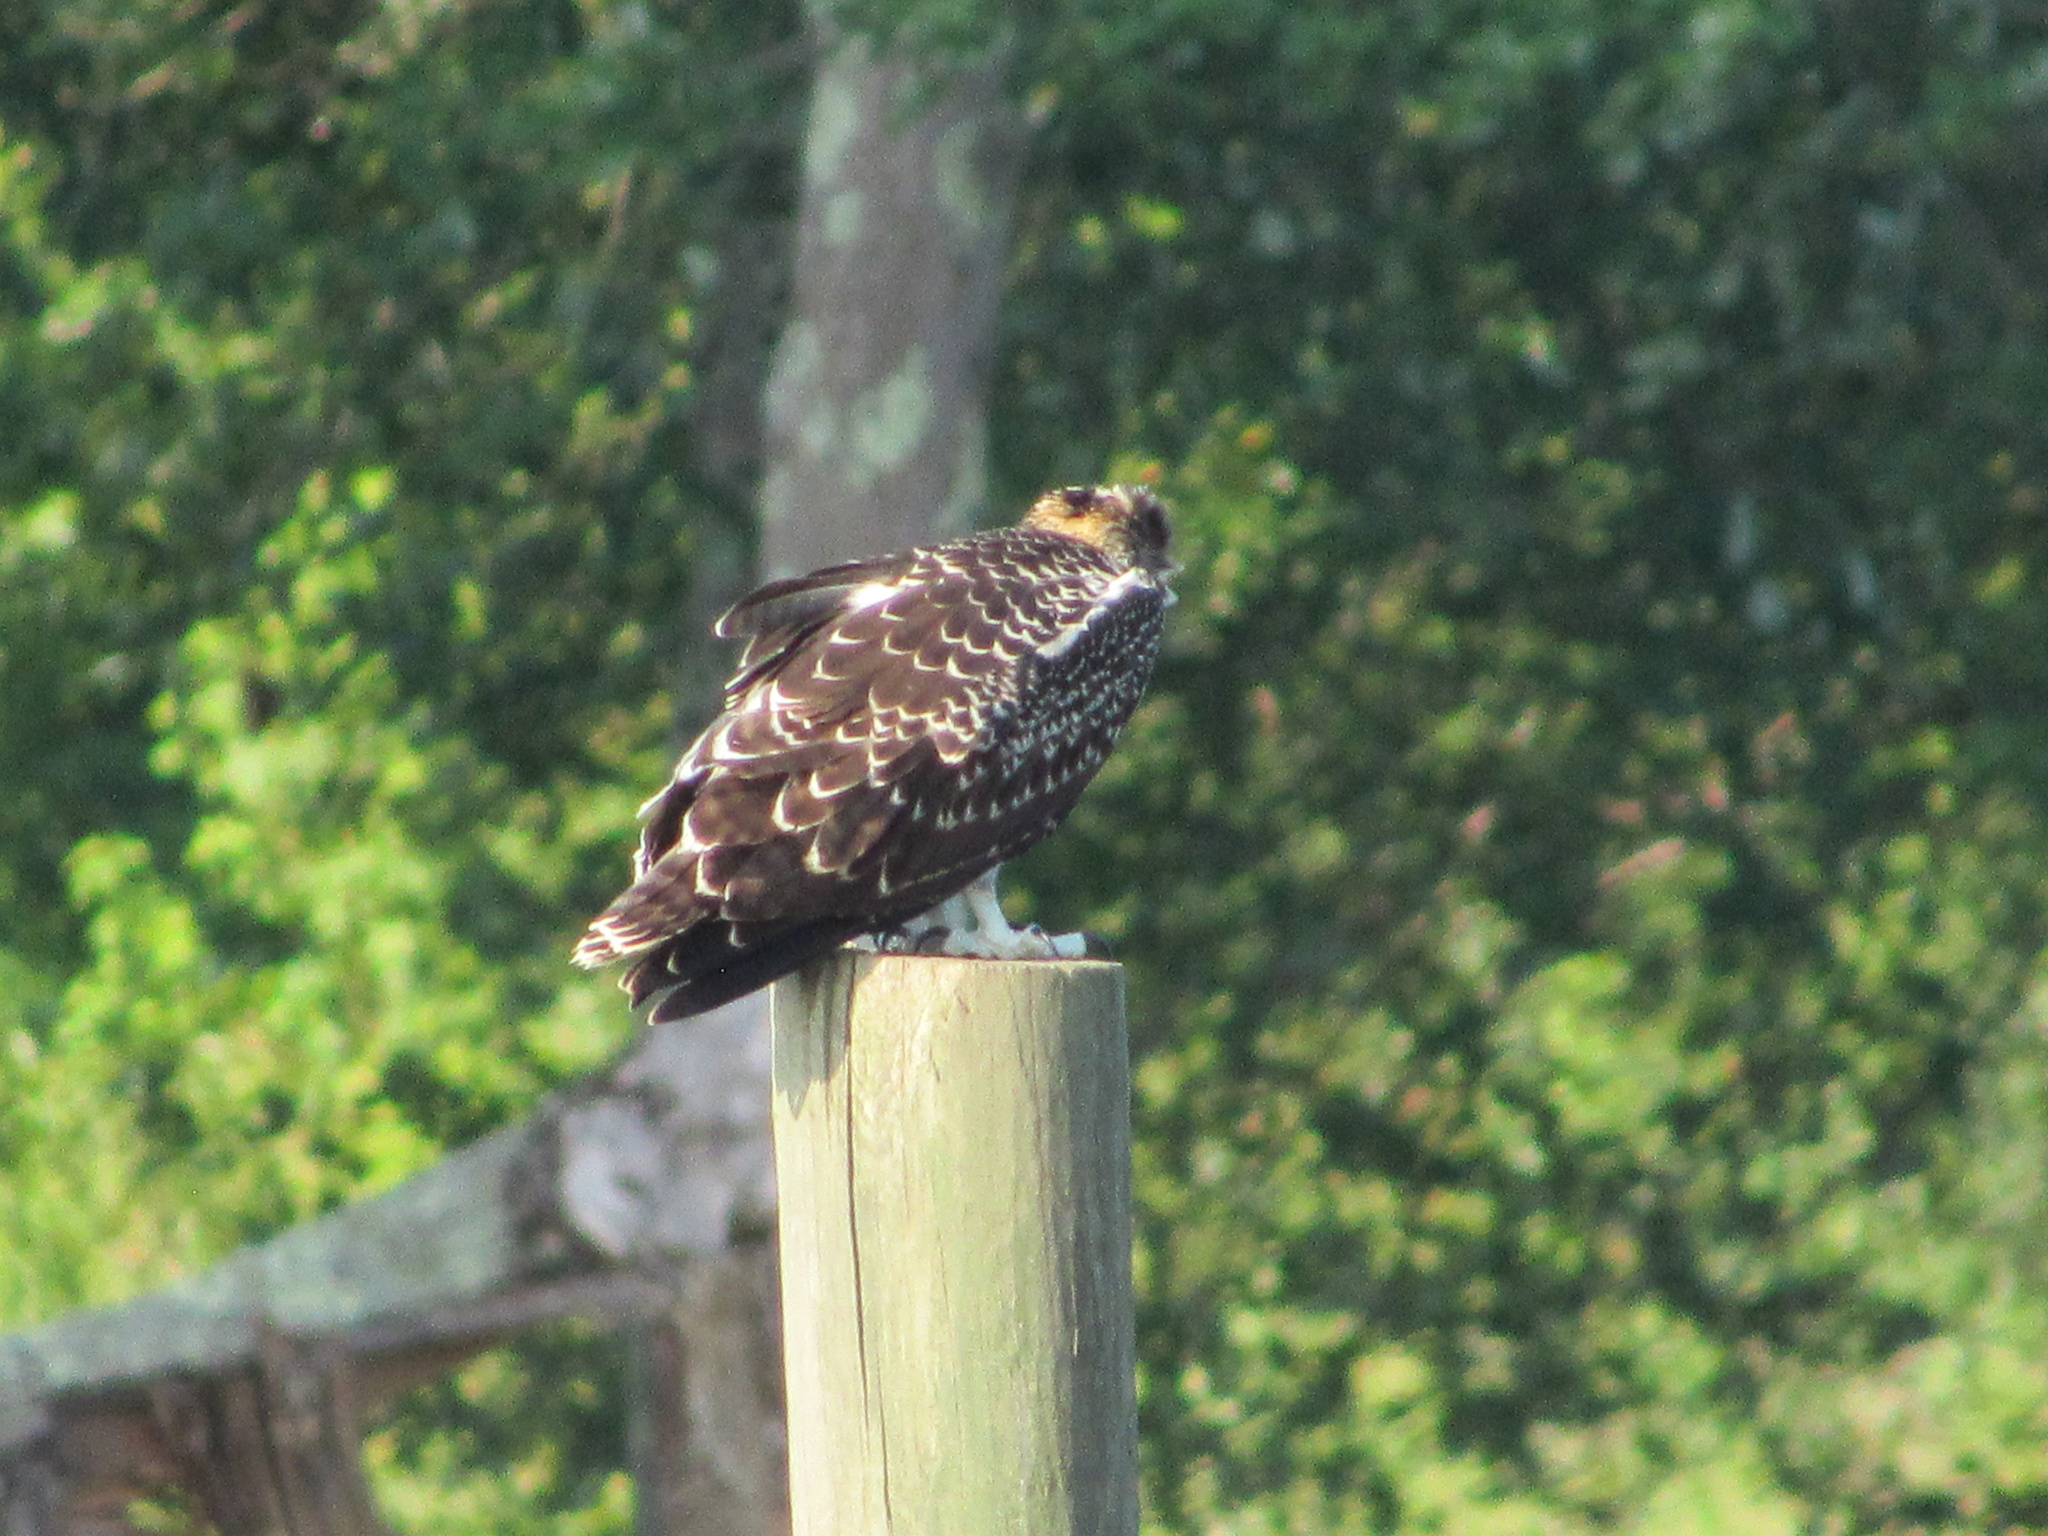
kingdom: Animalia
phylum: Chordata
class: Aves
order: Accipitriformes
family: Pandionidae
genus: Pandion
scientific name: Pandion haliaetus
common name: Osprey
